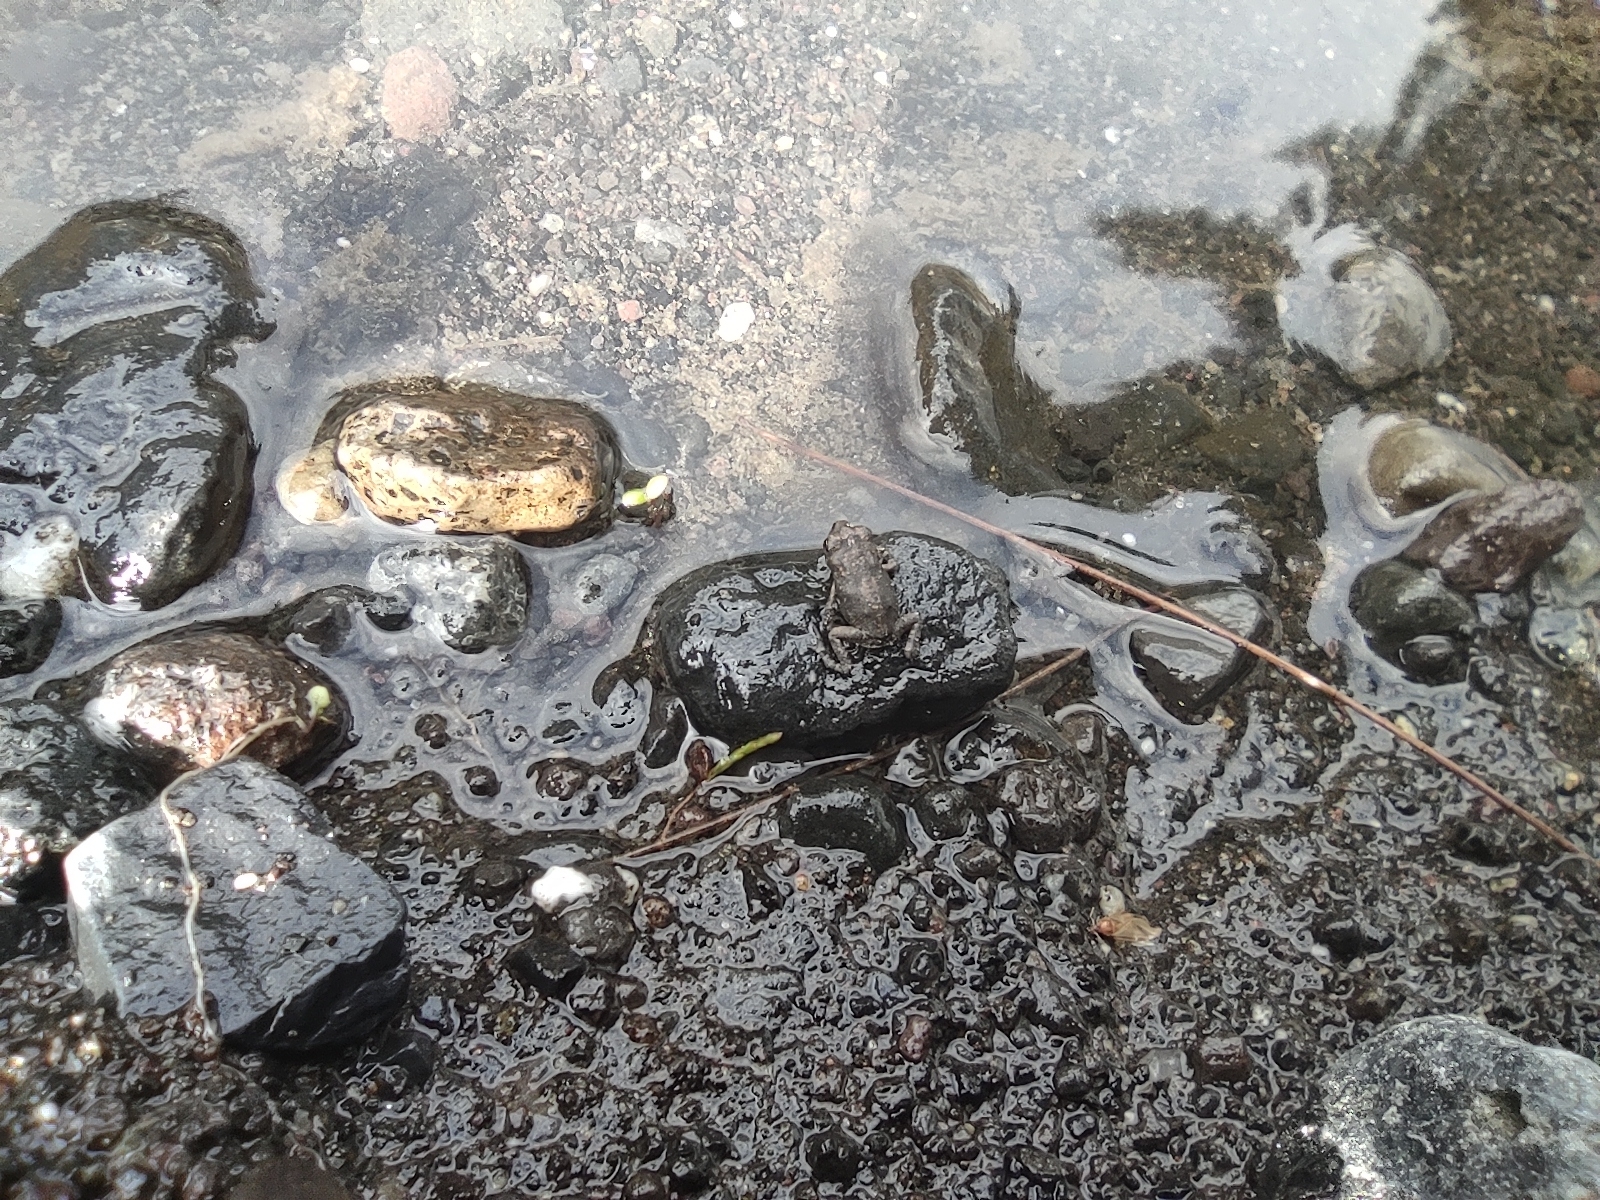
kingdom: Animalia
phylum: Chordata
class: Amphibia
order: Anura
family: Bufonidae
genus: Sclerophrys
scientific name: Sclerophrys gutturalis
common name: African common toad
